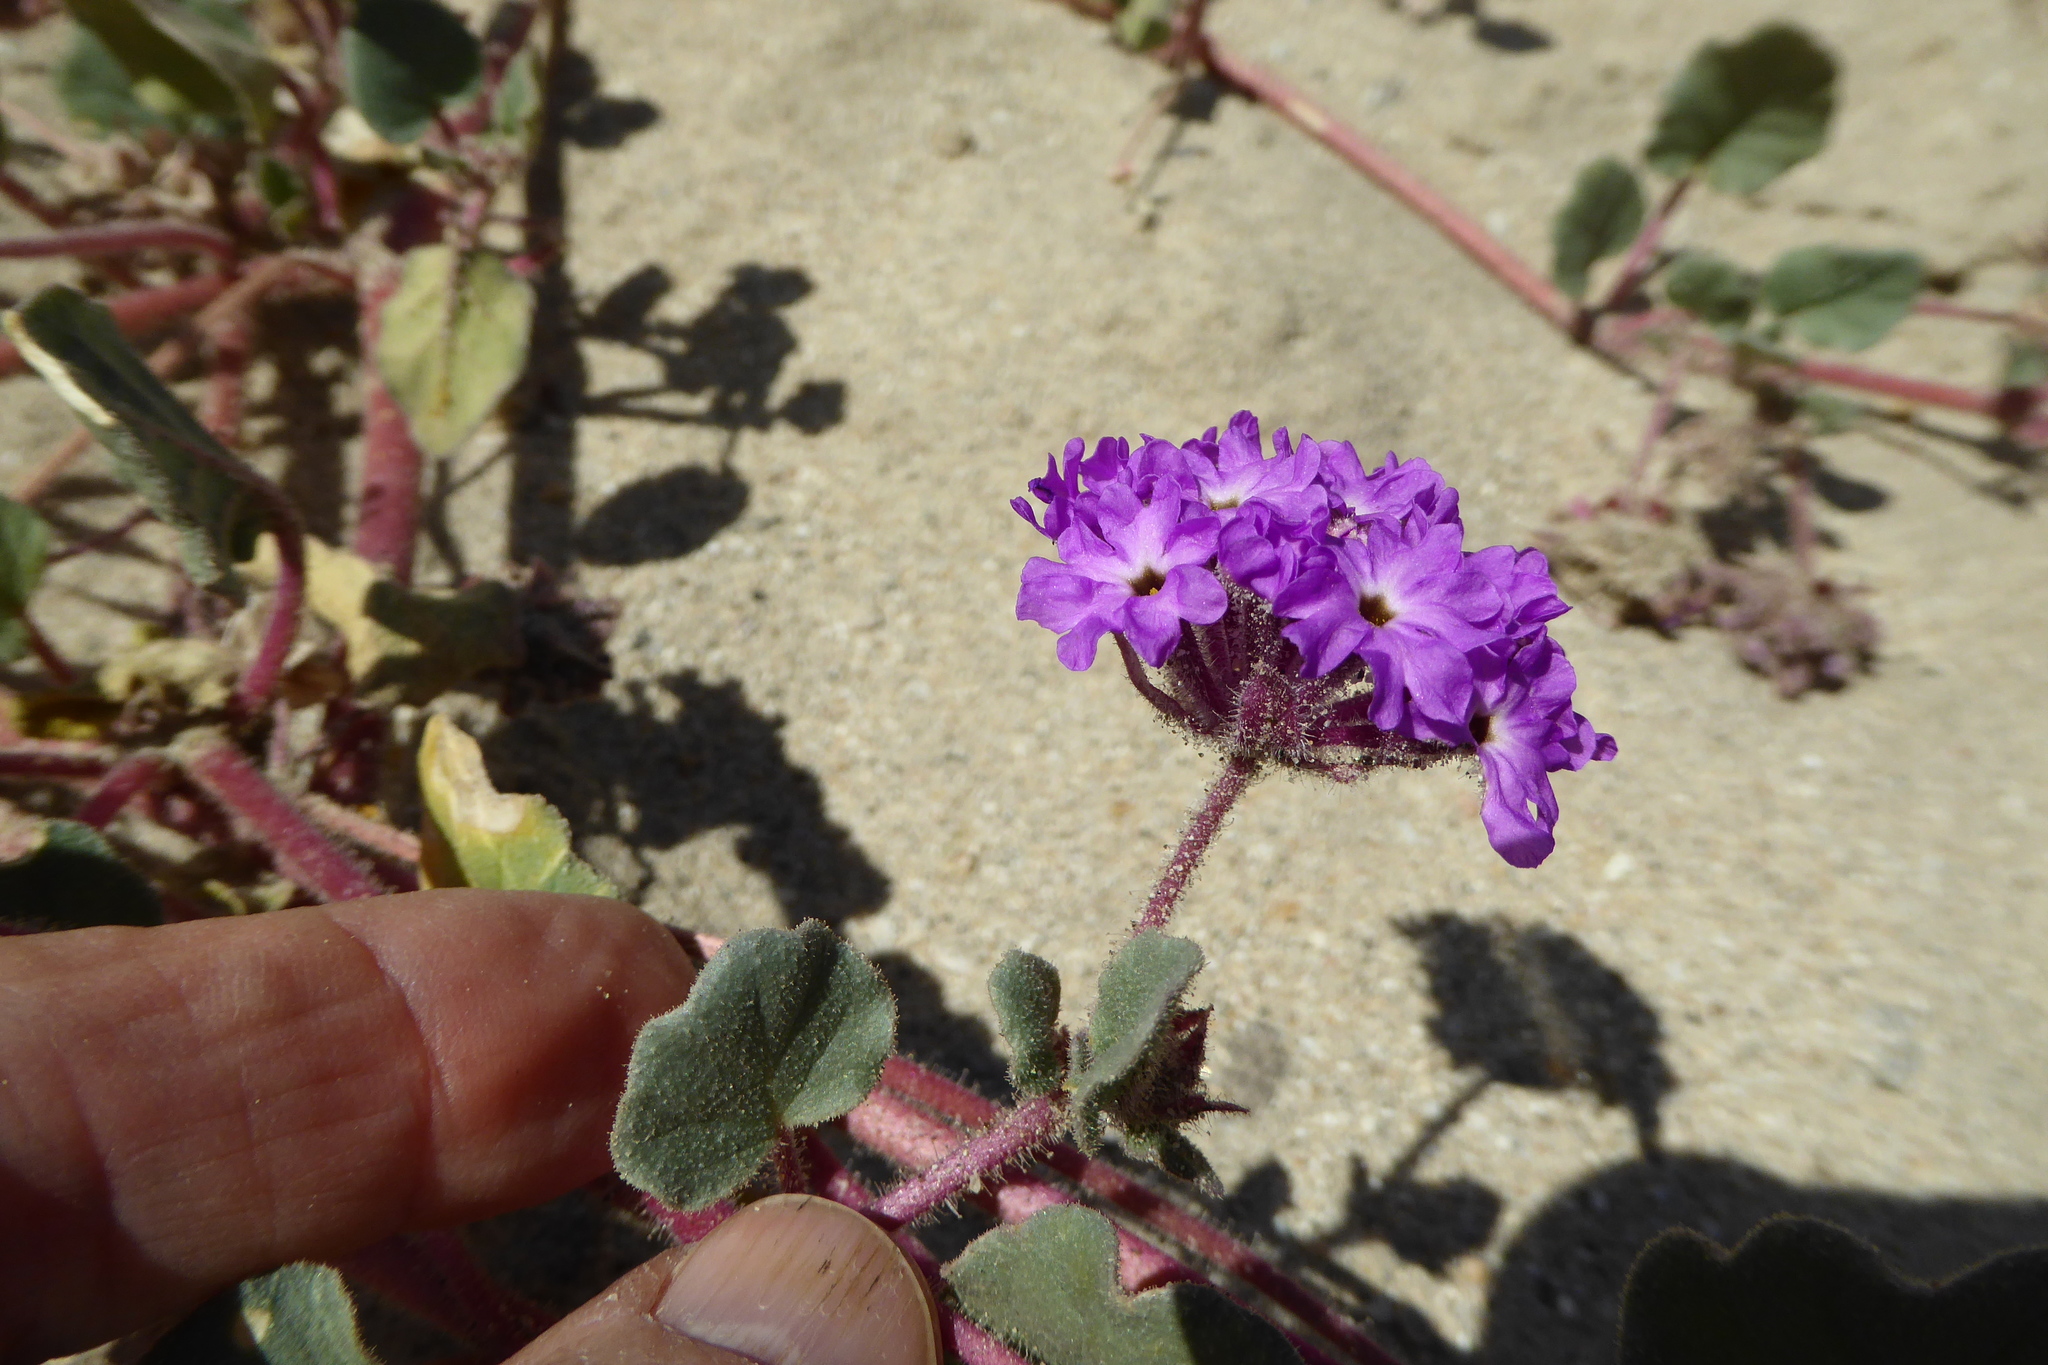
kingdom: Plantae
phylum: Tracheophyta
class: Magnoliopsida
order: Caryophyllales
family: Nyctaginaceae
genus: Abronia
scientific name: Abronia villosa
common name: Desert sand-verbena
